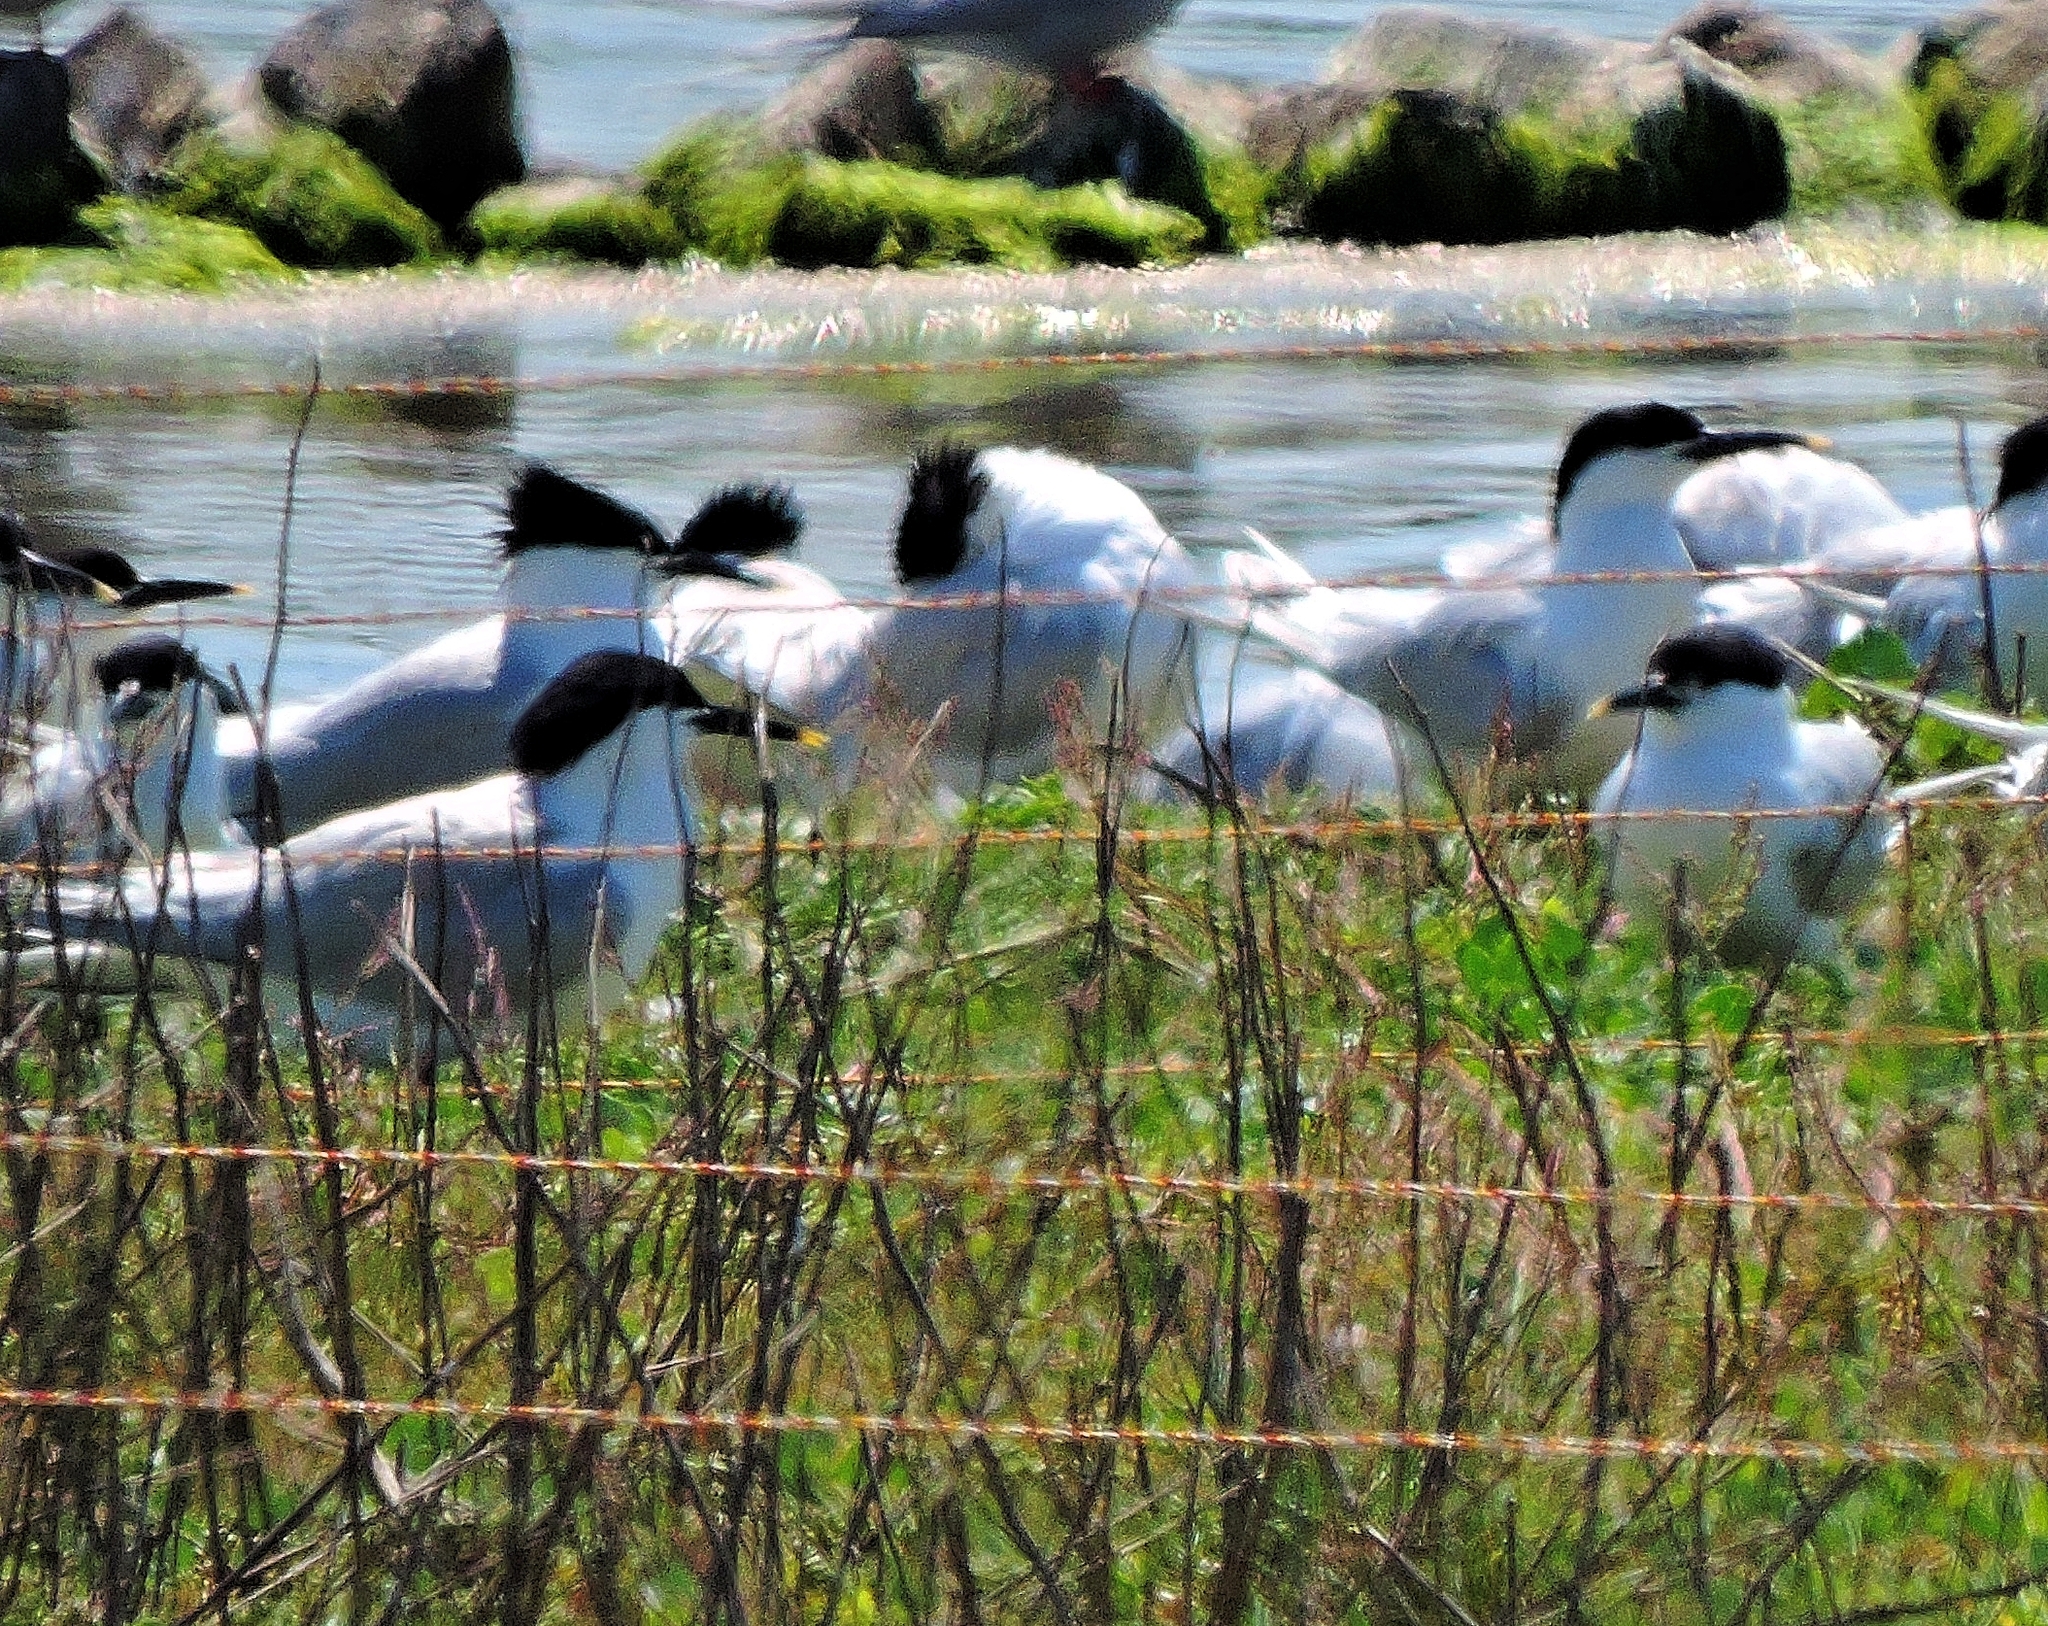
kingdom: Animalia
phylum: Chordata
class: Aves
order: Charadriiformes
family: Laridae
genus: Thalasseus
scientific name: Thalasseus sandvicensis
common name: Sandwich tern
